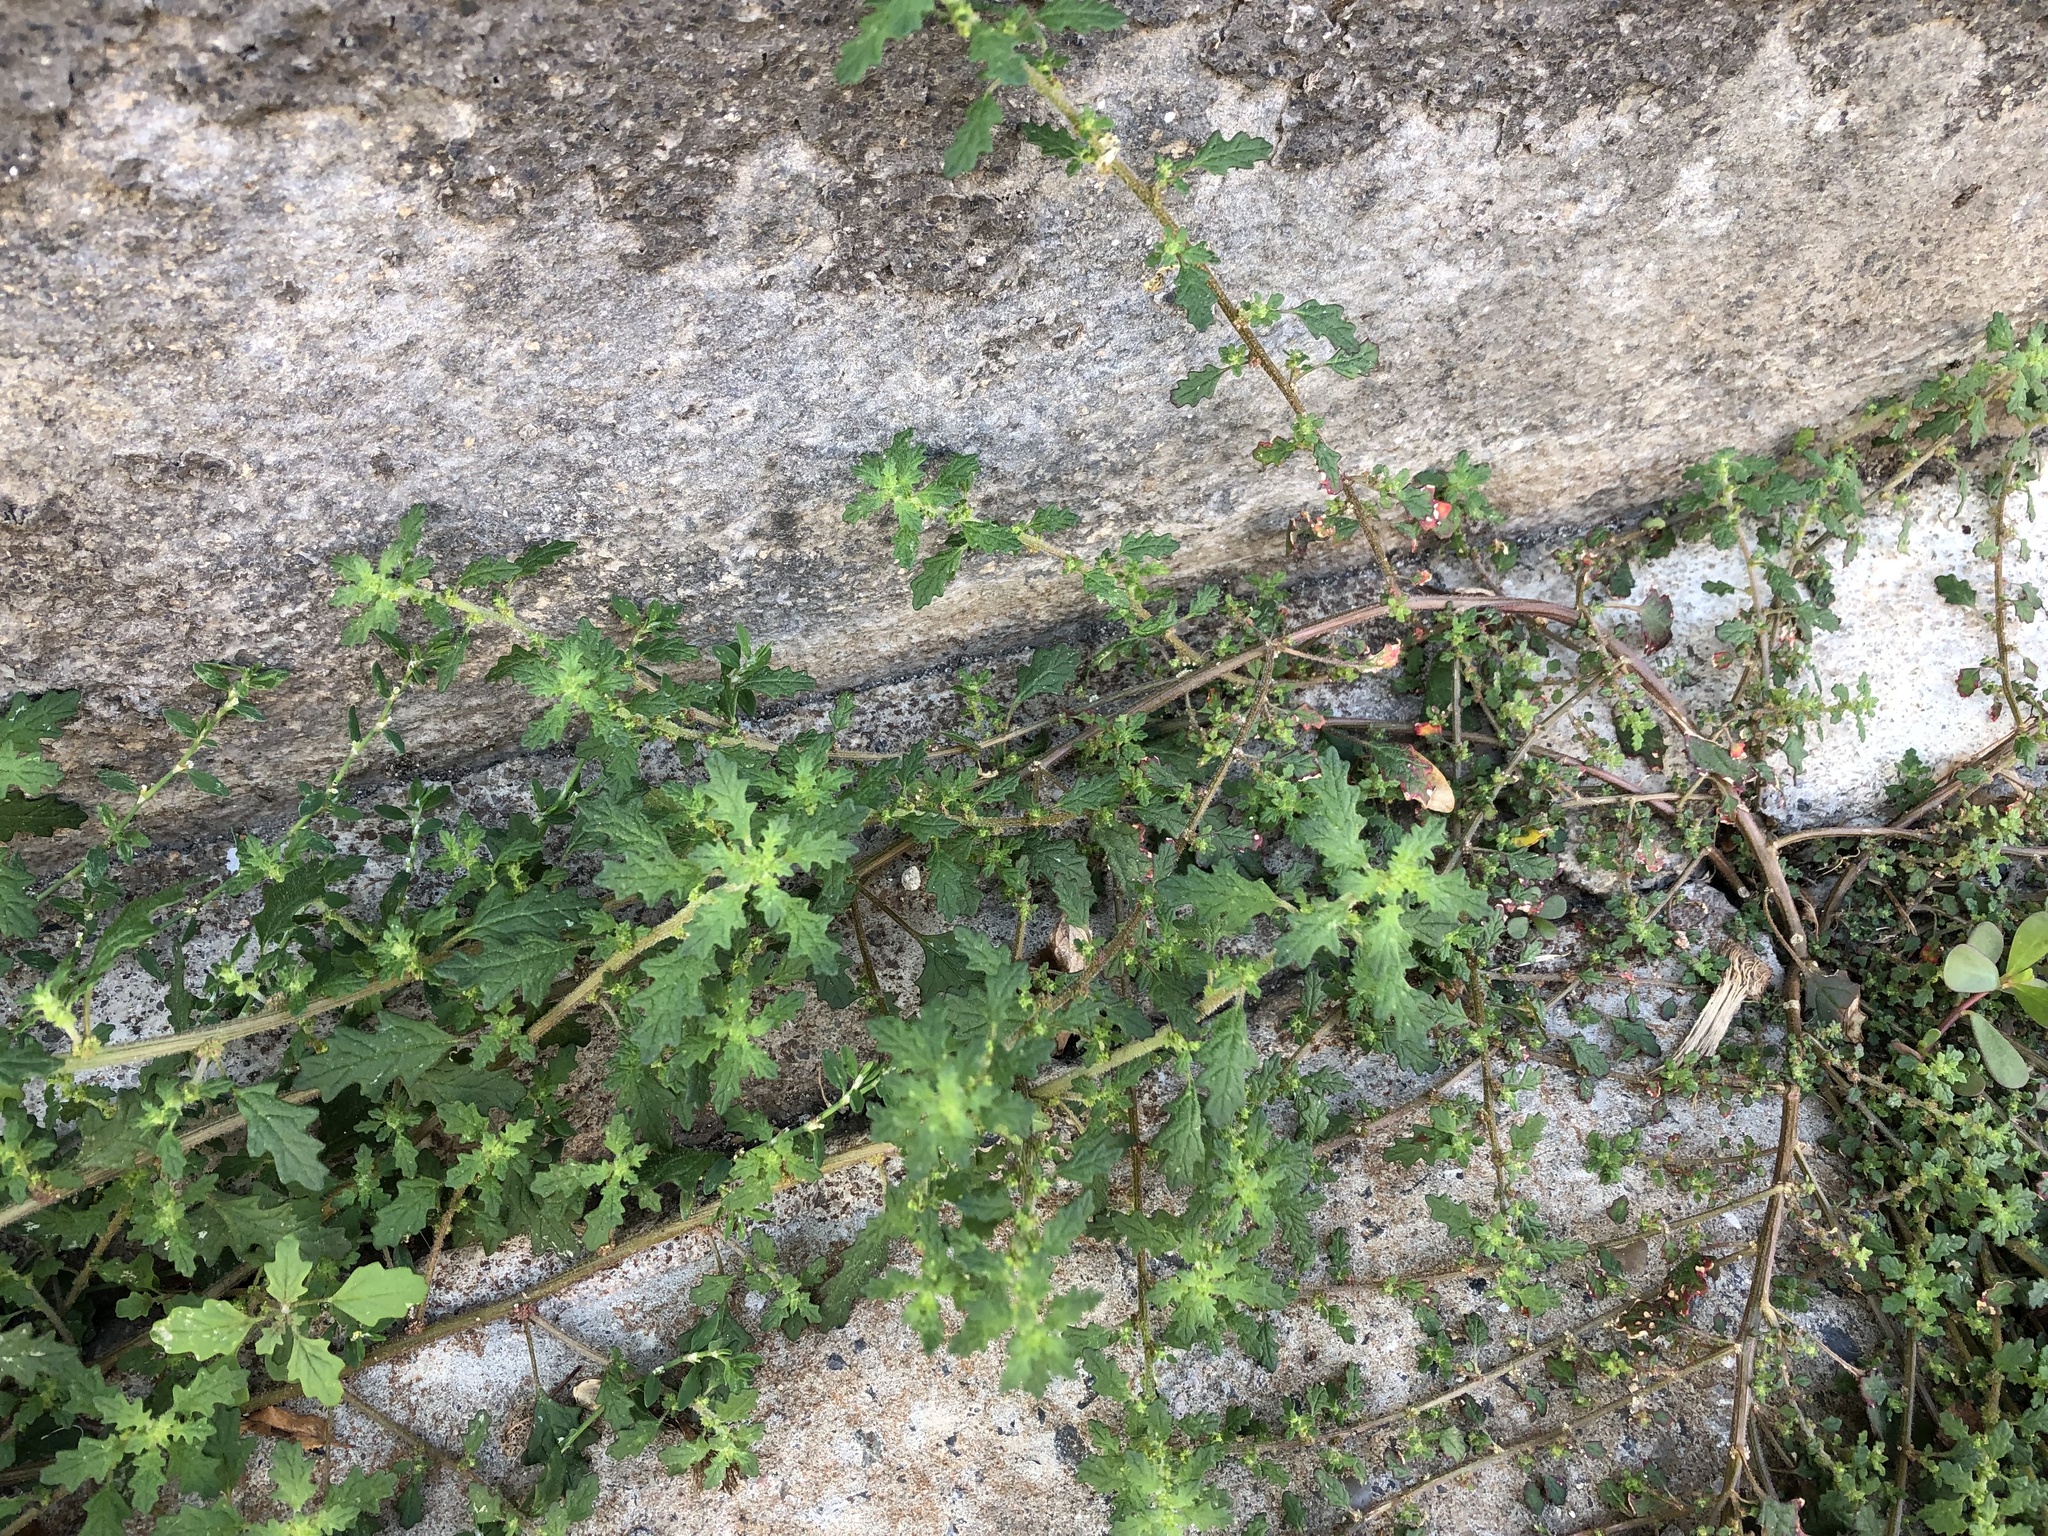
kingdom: Plantae
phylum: Tracheophyta
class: Magnoliopsida
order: Caryophyllales
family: Amaranthaceae
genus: Dysphania
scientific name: Dysphania pumilio
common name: Clammy goosefoot
